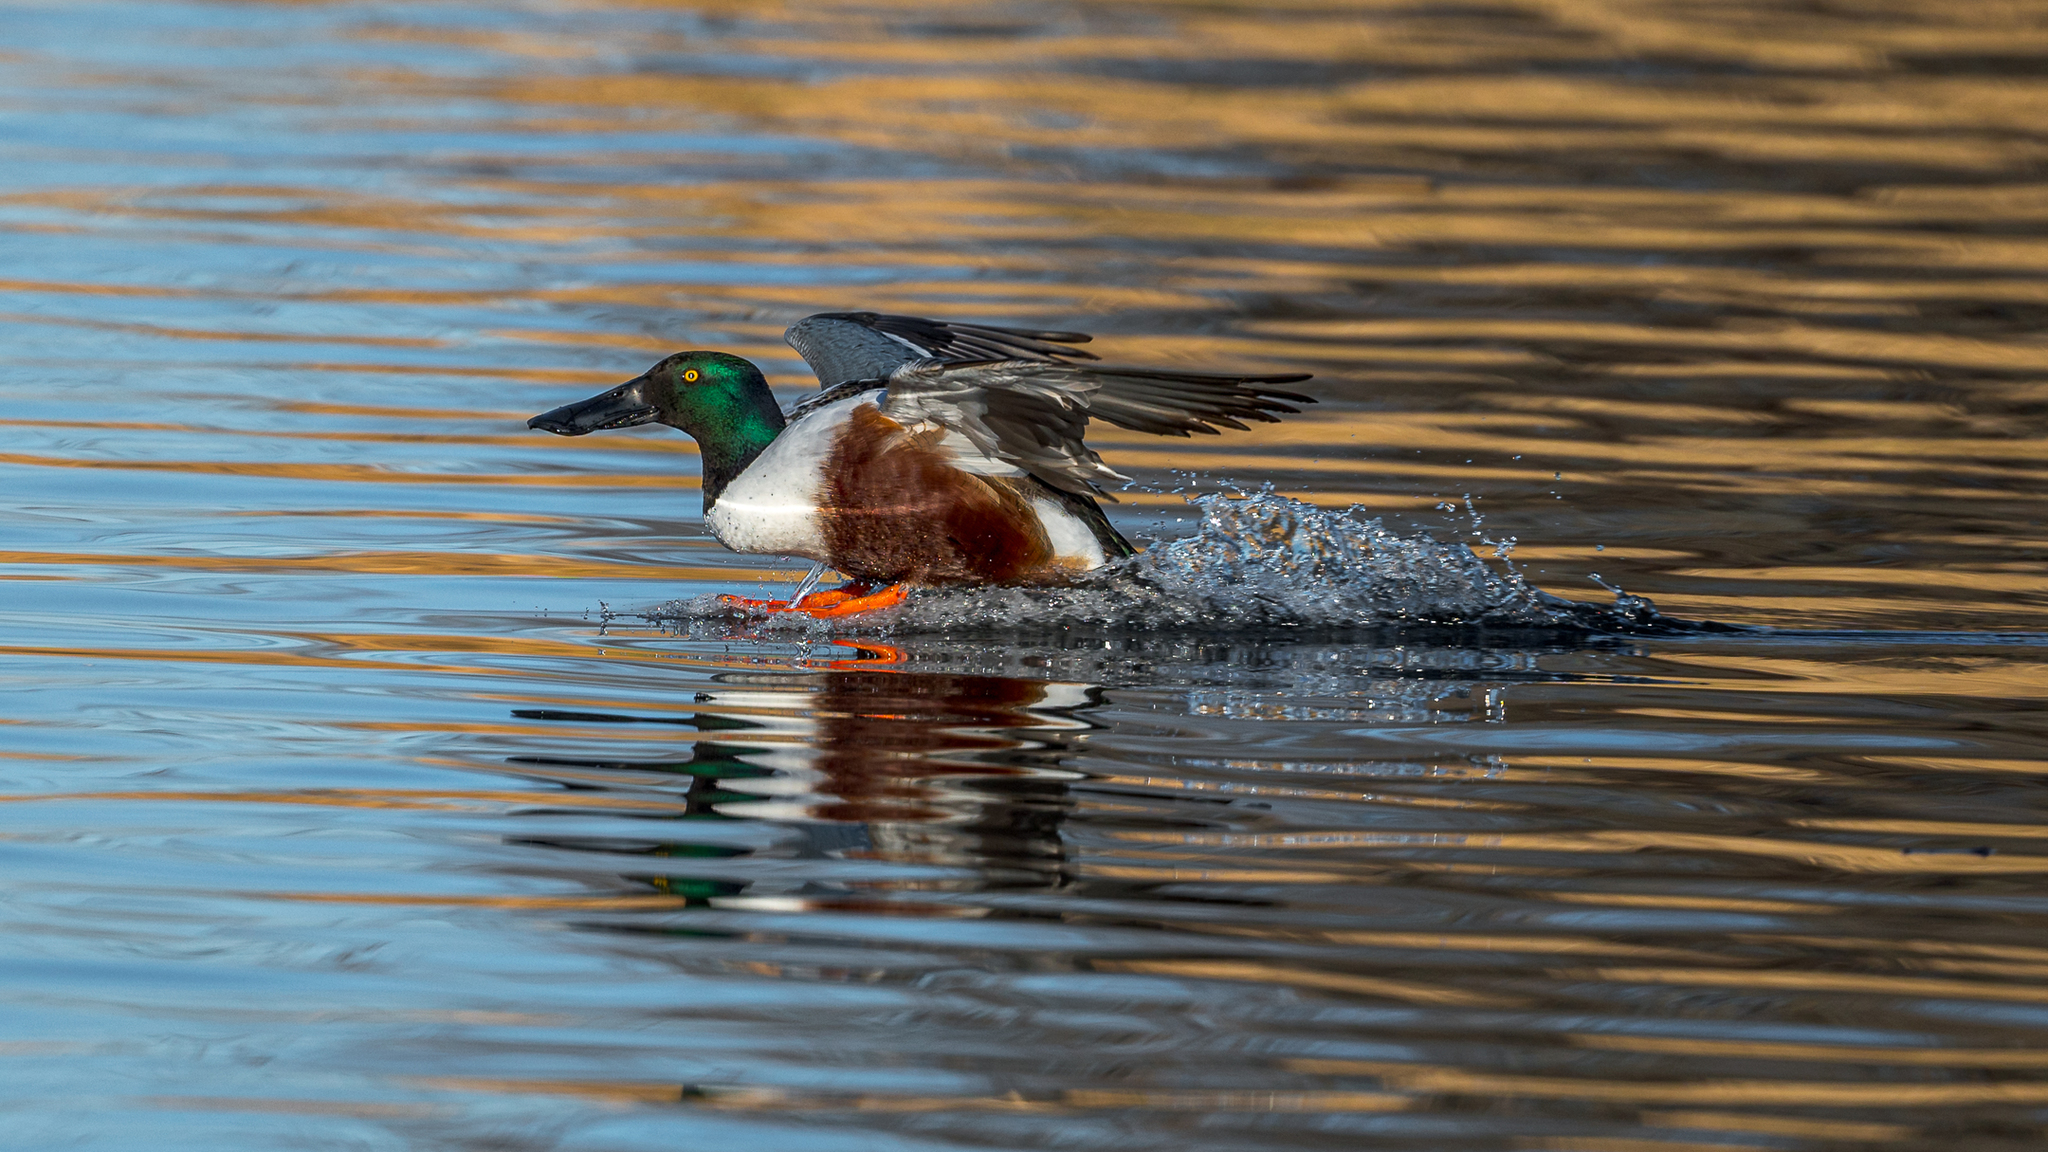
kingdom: Animalia
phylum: Chordata
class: Aves
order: Anseriformes
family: Anatidae
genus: Spatula
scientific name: Spatula clypeata
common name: Northern shoveler
